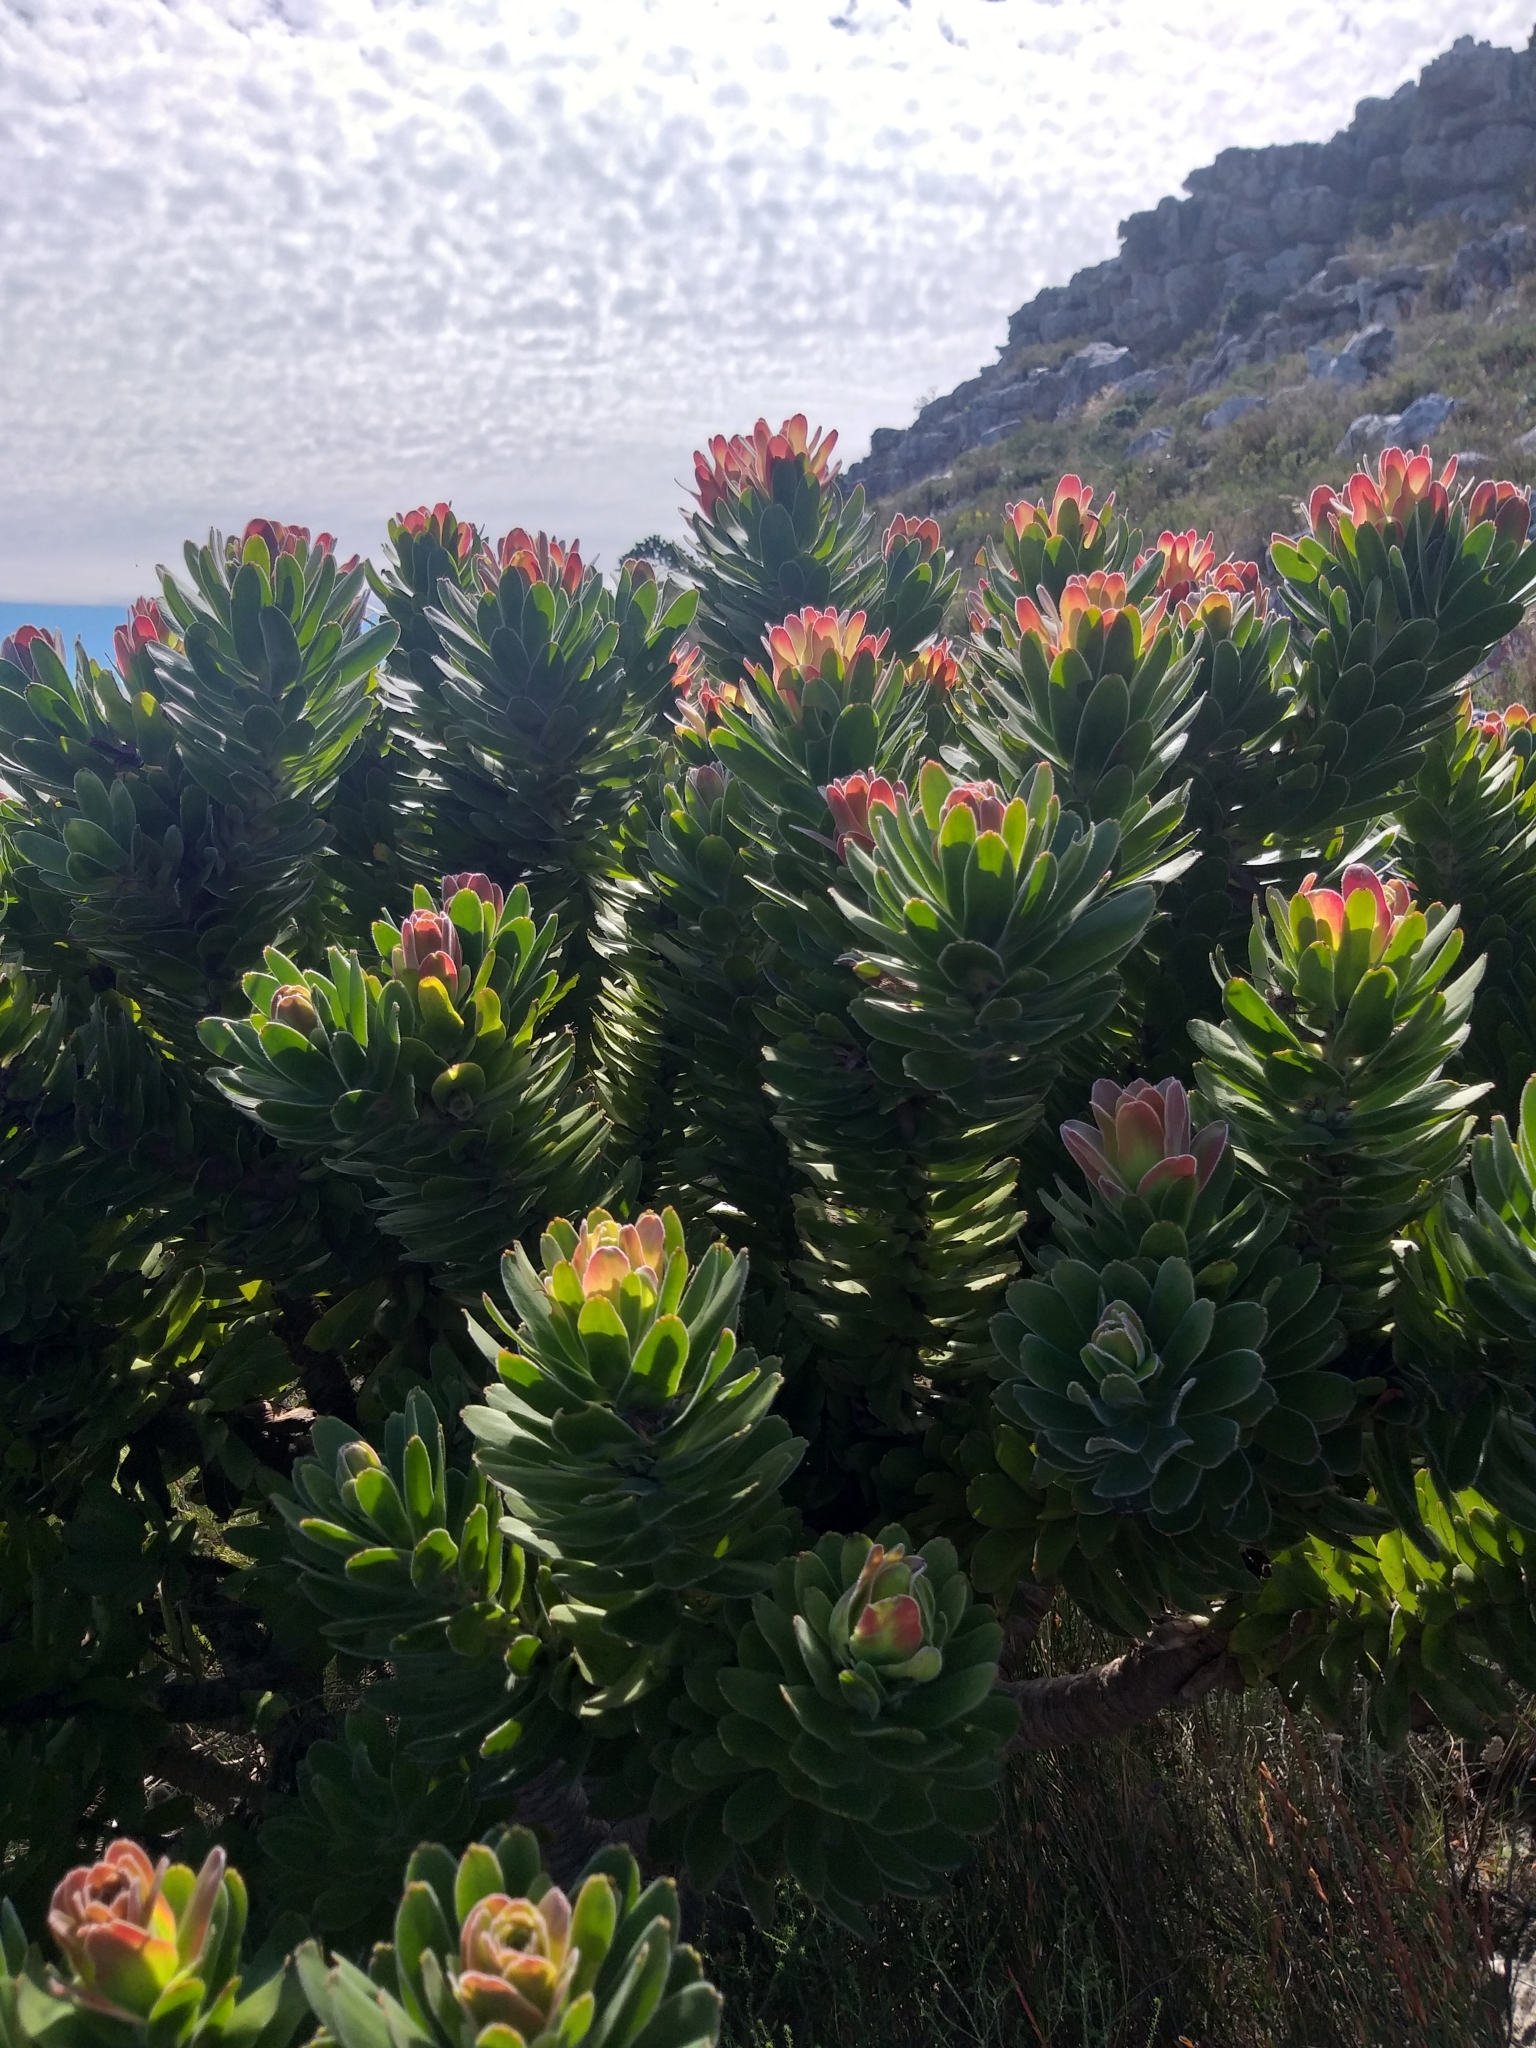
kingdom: Plantae
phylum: Tracheophyta
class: Magnoliopsida
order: Proteales
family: Proteaceae
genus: Mimetes
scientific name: Mimetes fimbriifolius
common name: Fringed bottlebrush
